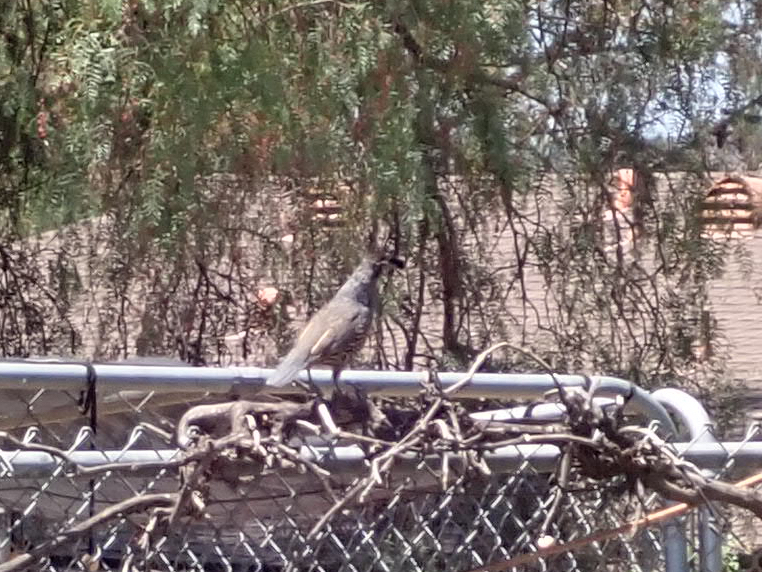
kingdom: Animalia
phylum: Chordata
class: Aves
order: Galliformes
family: Odontophoridae
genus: Callipepla
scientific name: Callipepla californica
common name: California quail
